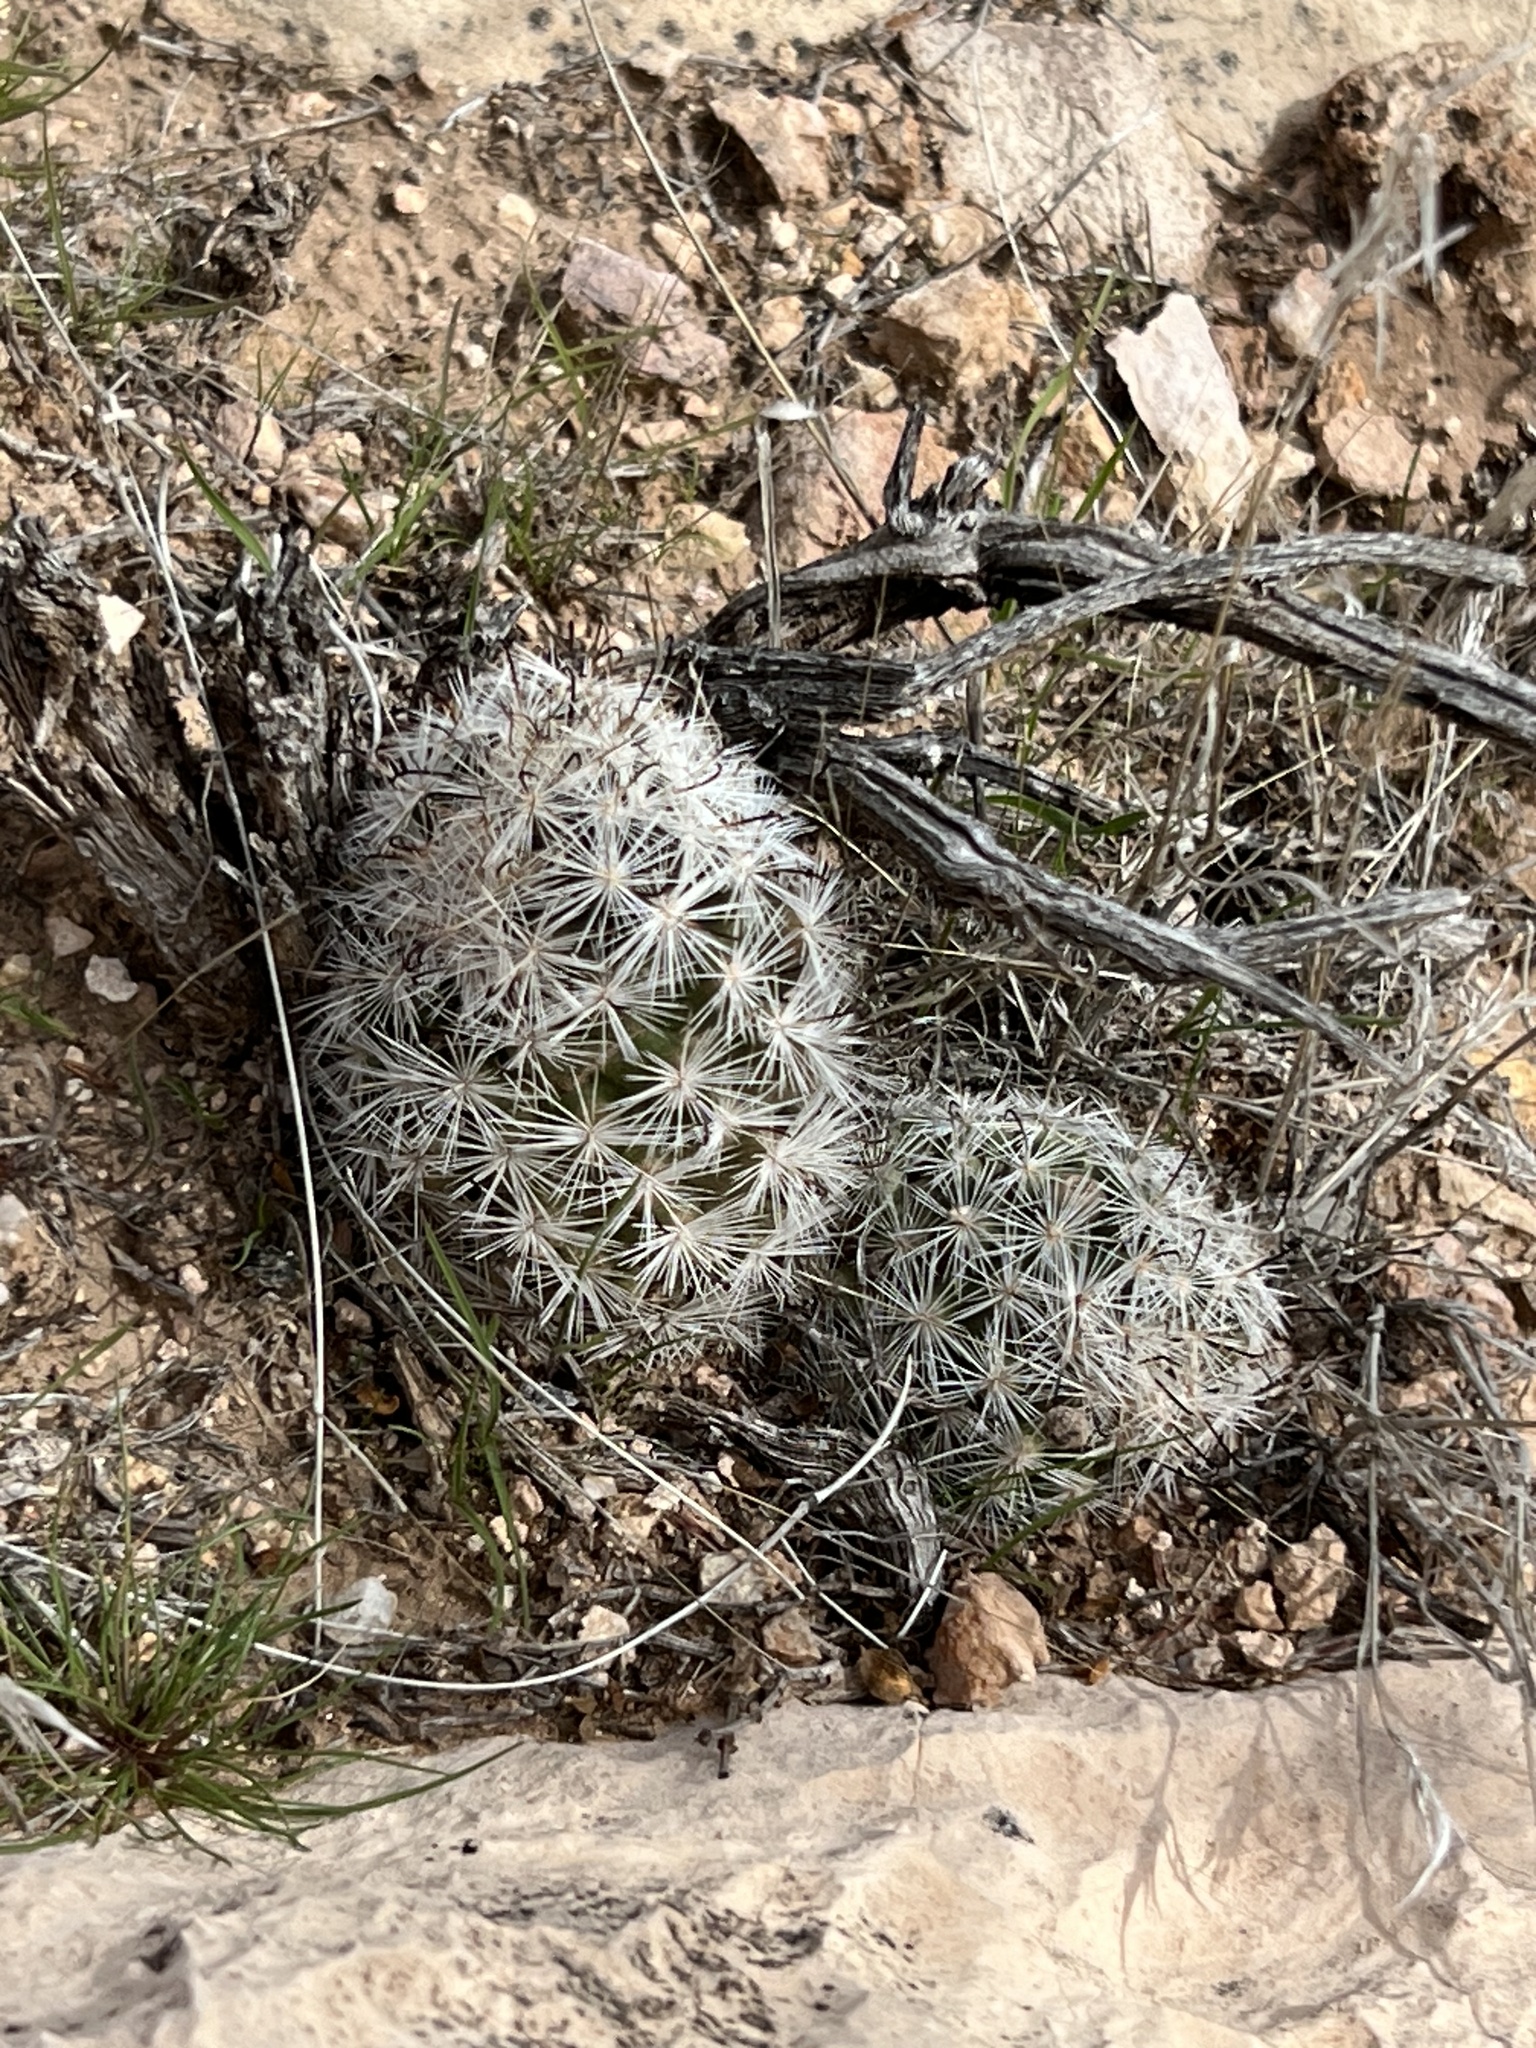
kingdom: Plantae
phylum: Tracheophyta
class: Magnoliopsida
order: Caryophyllales
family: Cactaceae
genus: Cochemiea
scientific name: Cochemiea tetrancistra
